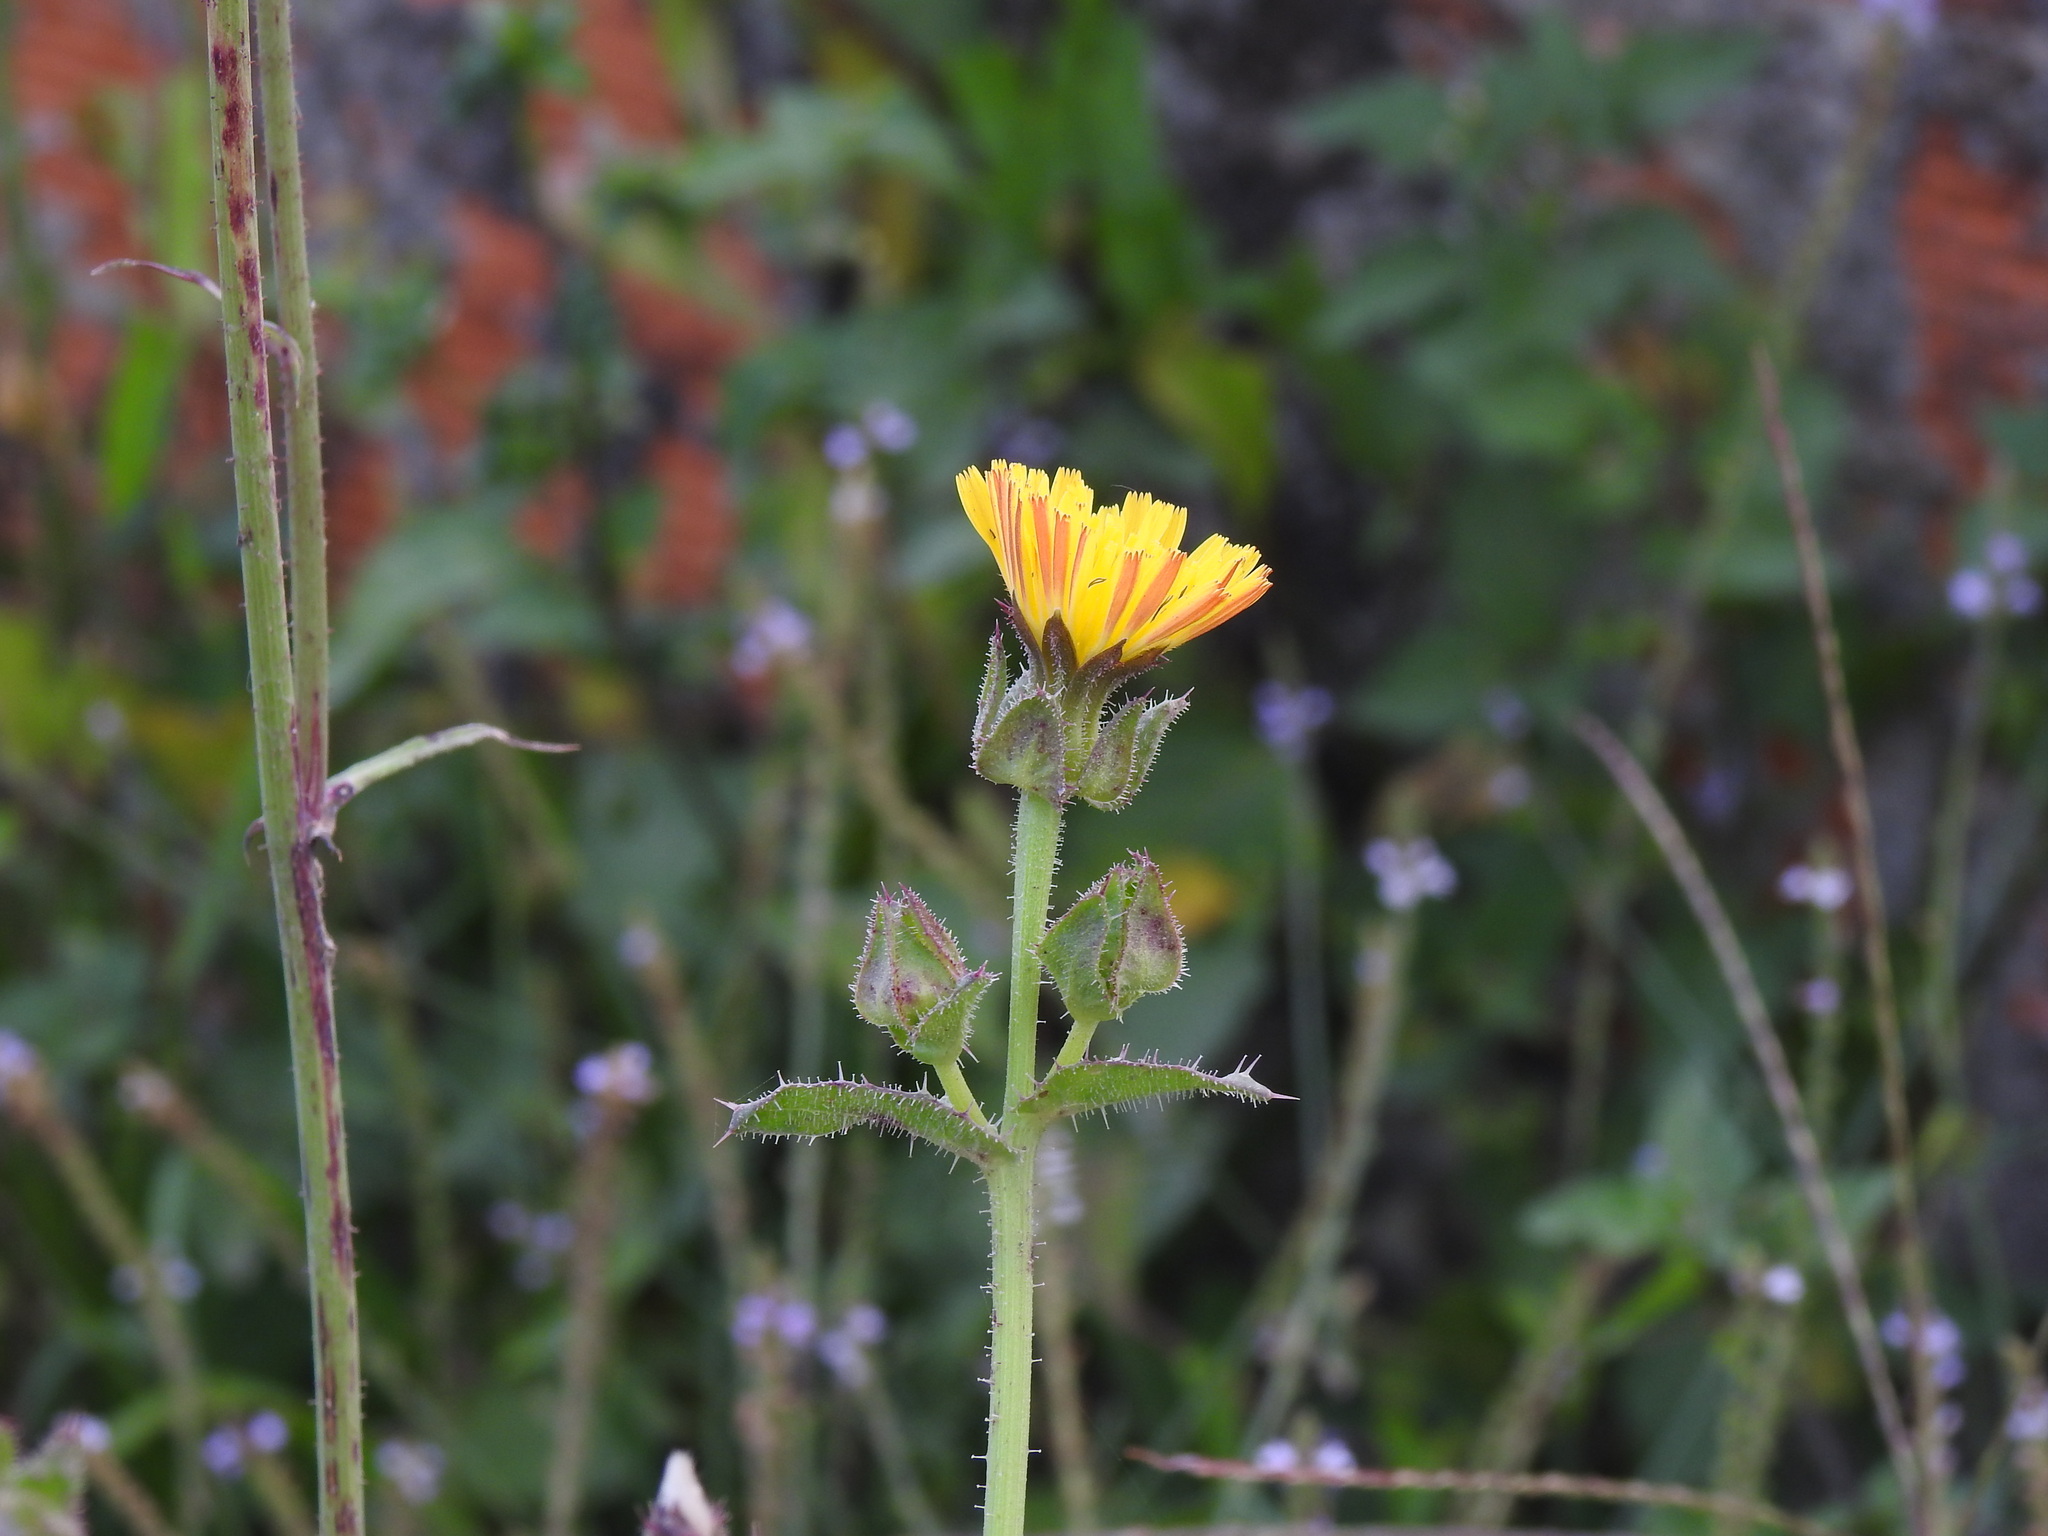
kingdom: Plantae
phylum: Tracheophyta
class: Magnoliopsida
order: Asterales
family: Asteraceae
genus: Helminthotheca
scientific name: Helminthotheca echioides
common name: Ox-tongue
